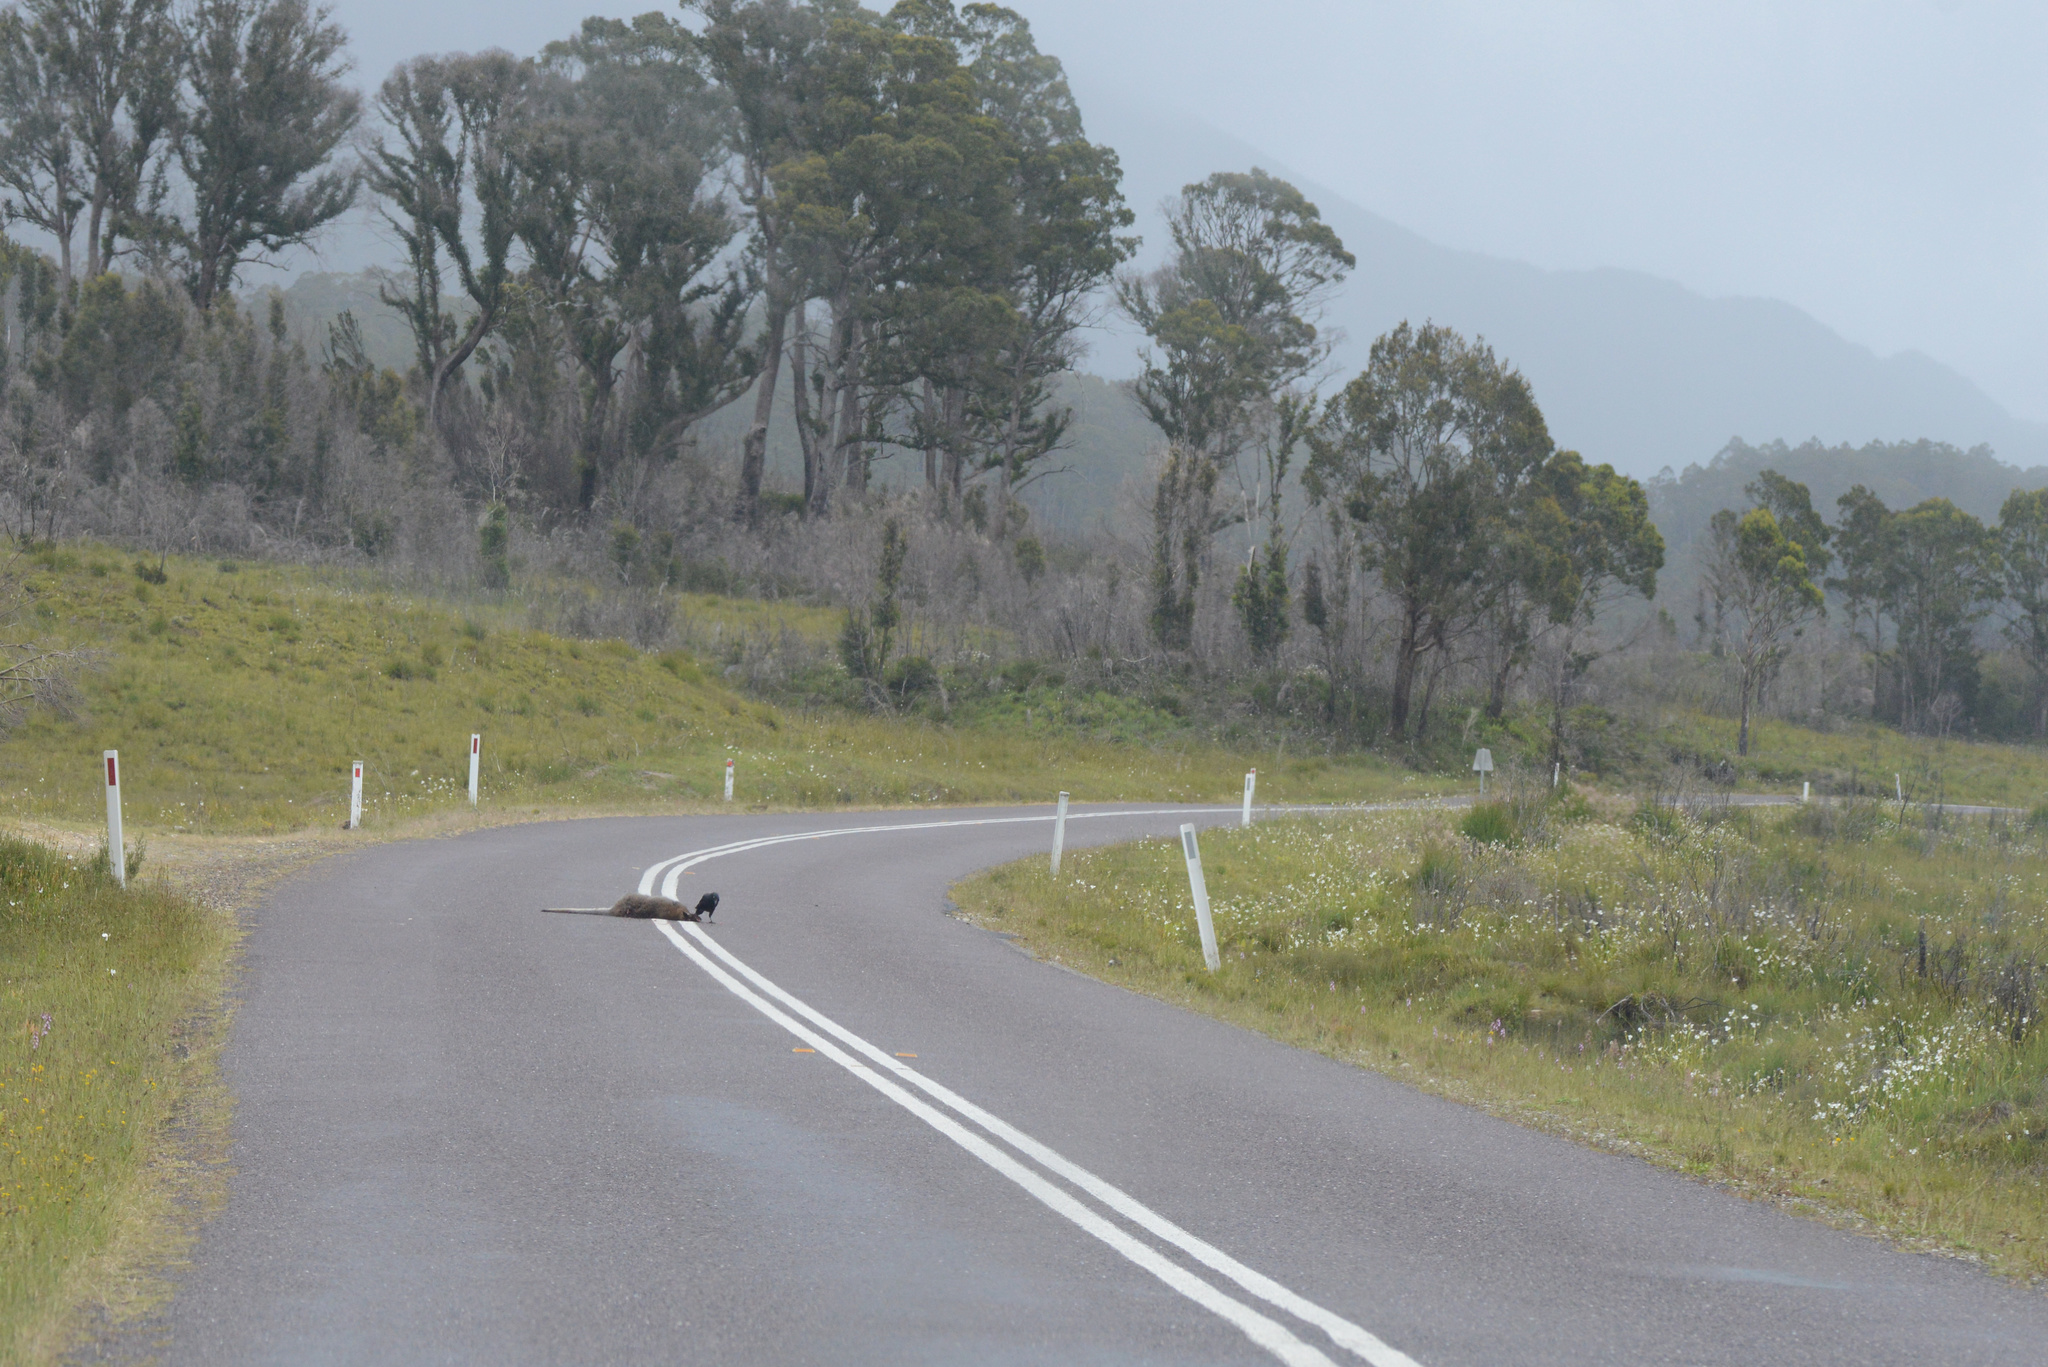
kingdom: Animalia
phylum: Chordata
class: Mammalia
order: Diprotodontia
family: Macropodidae
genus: Notamacropus
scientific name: Notamacropus rufogriseus
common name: Red-necked wallaby
